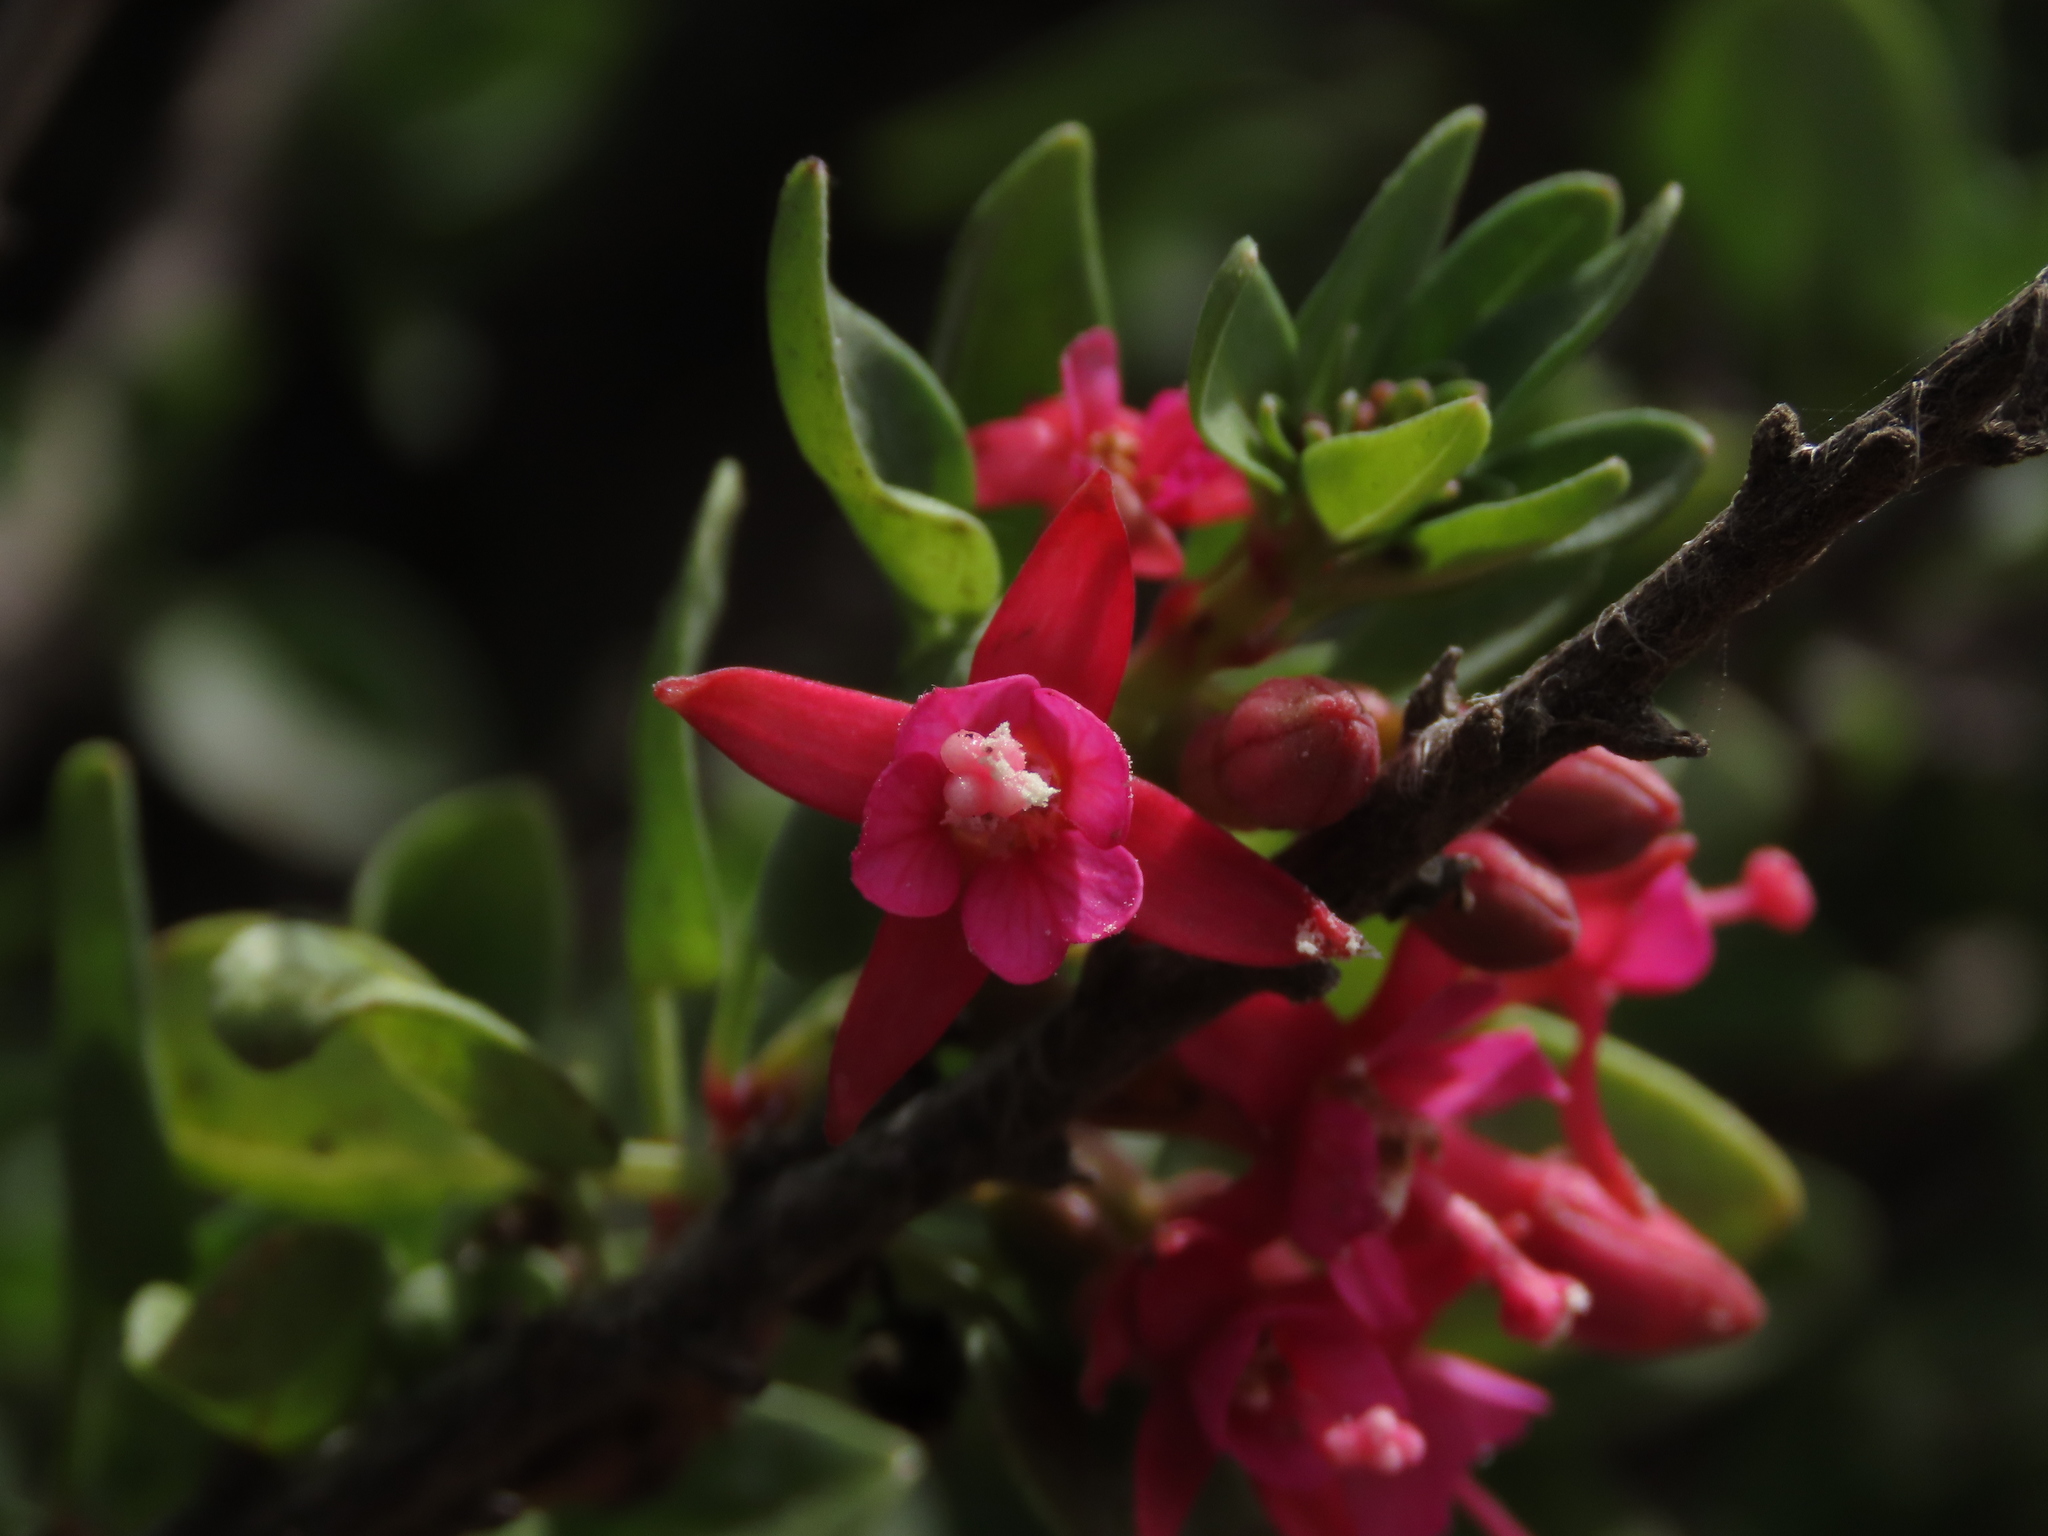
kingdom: Plantae
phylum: Tracheophyta
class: Magnoliopsida
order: Myrtales
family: Onagraceae
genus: Fuchsia
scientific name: Fuchsia lycioides
